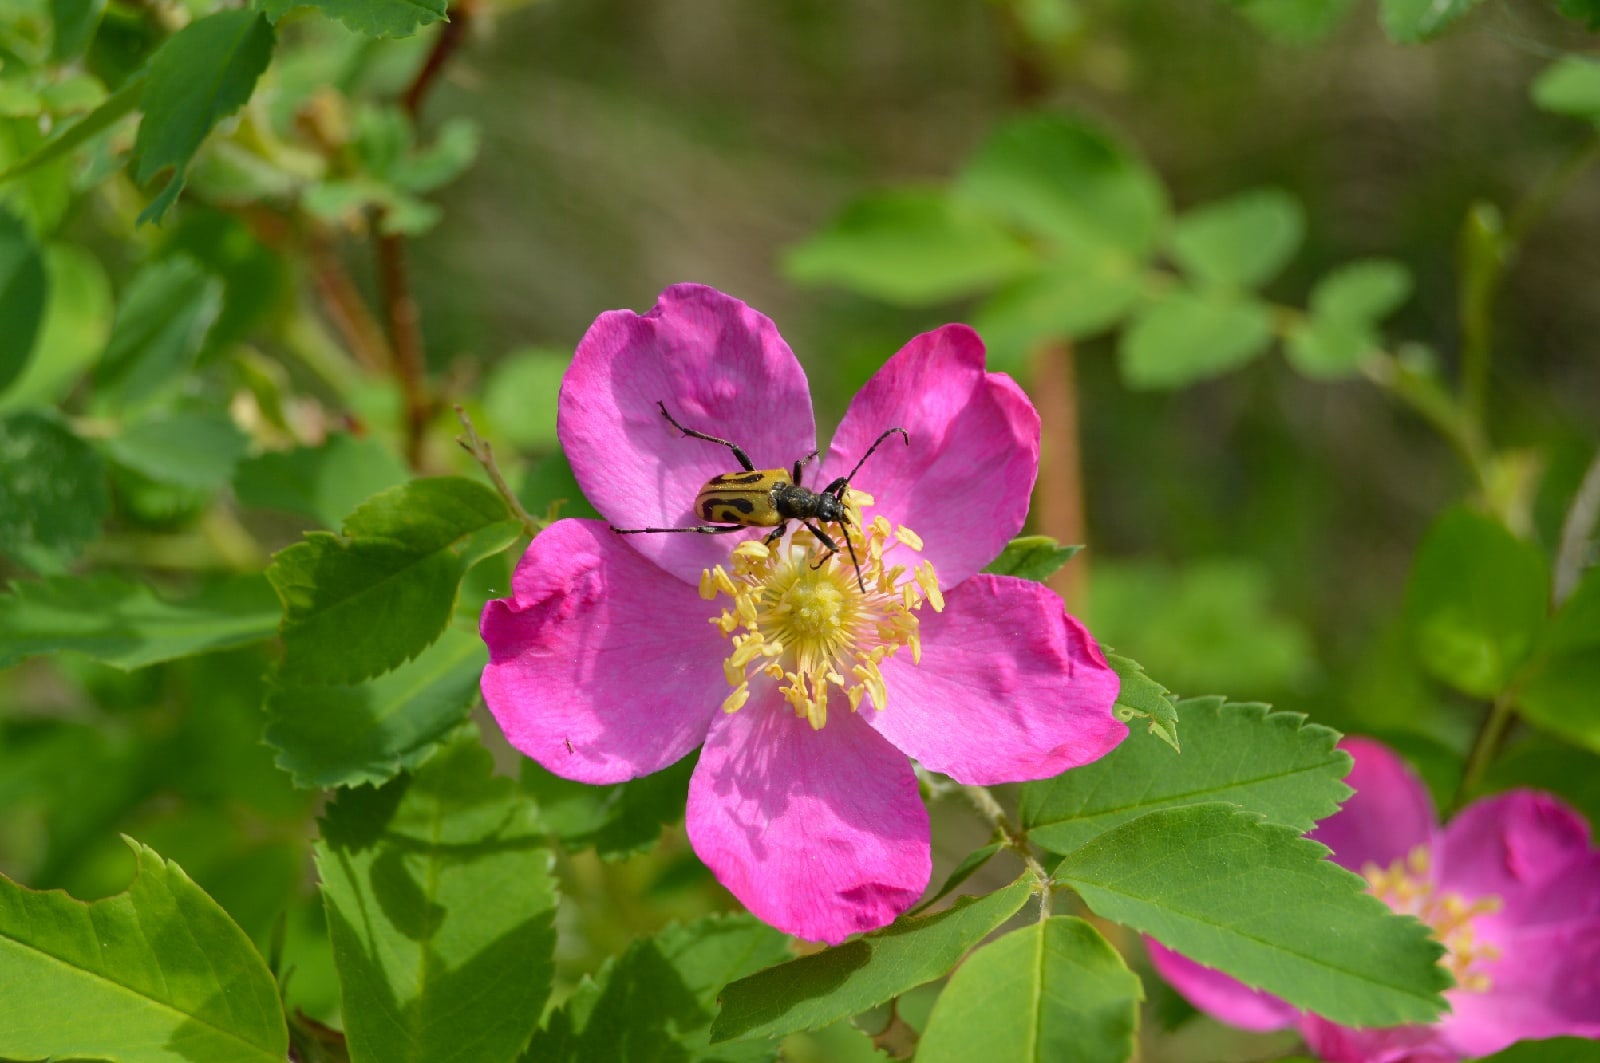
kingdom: Animalia
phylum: Arthropoda
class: Insecta
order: Coleoptera
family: Cerambycidae
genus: Brachyta
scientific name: Brachyta interrogationis
